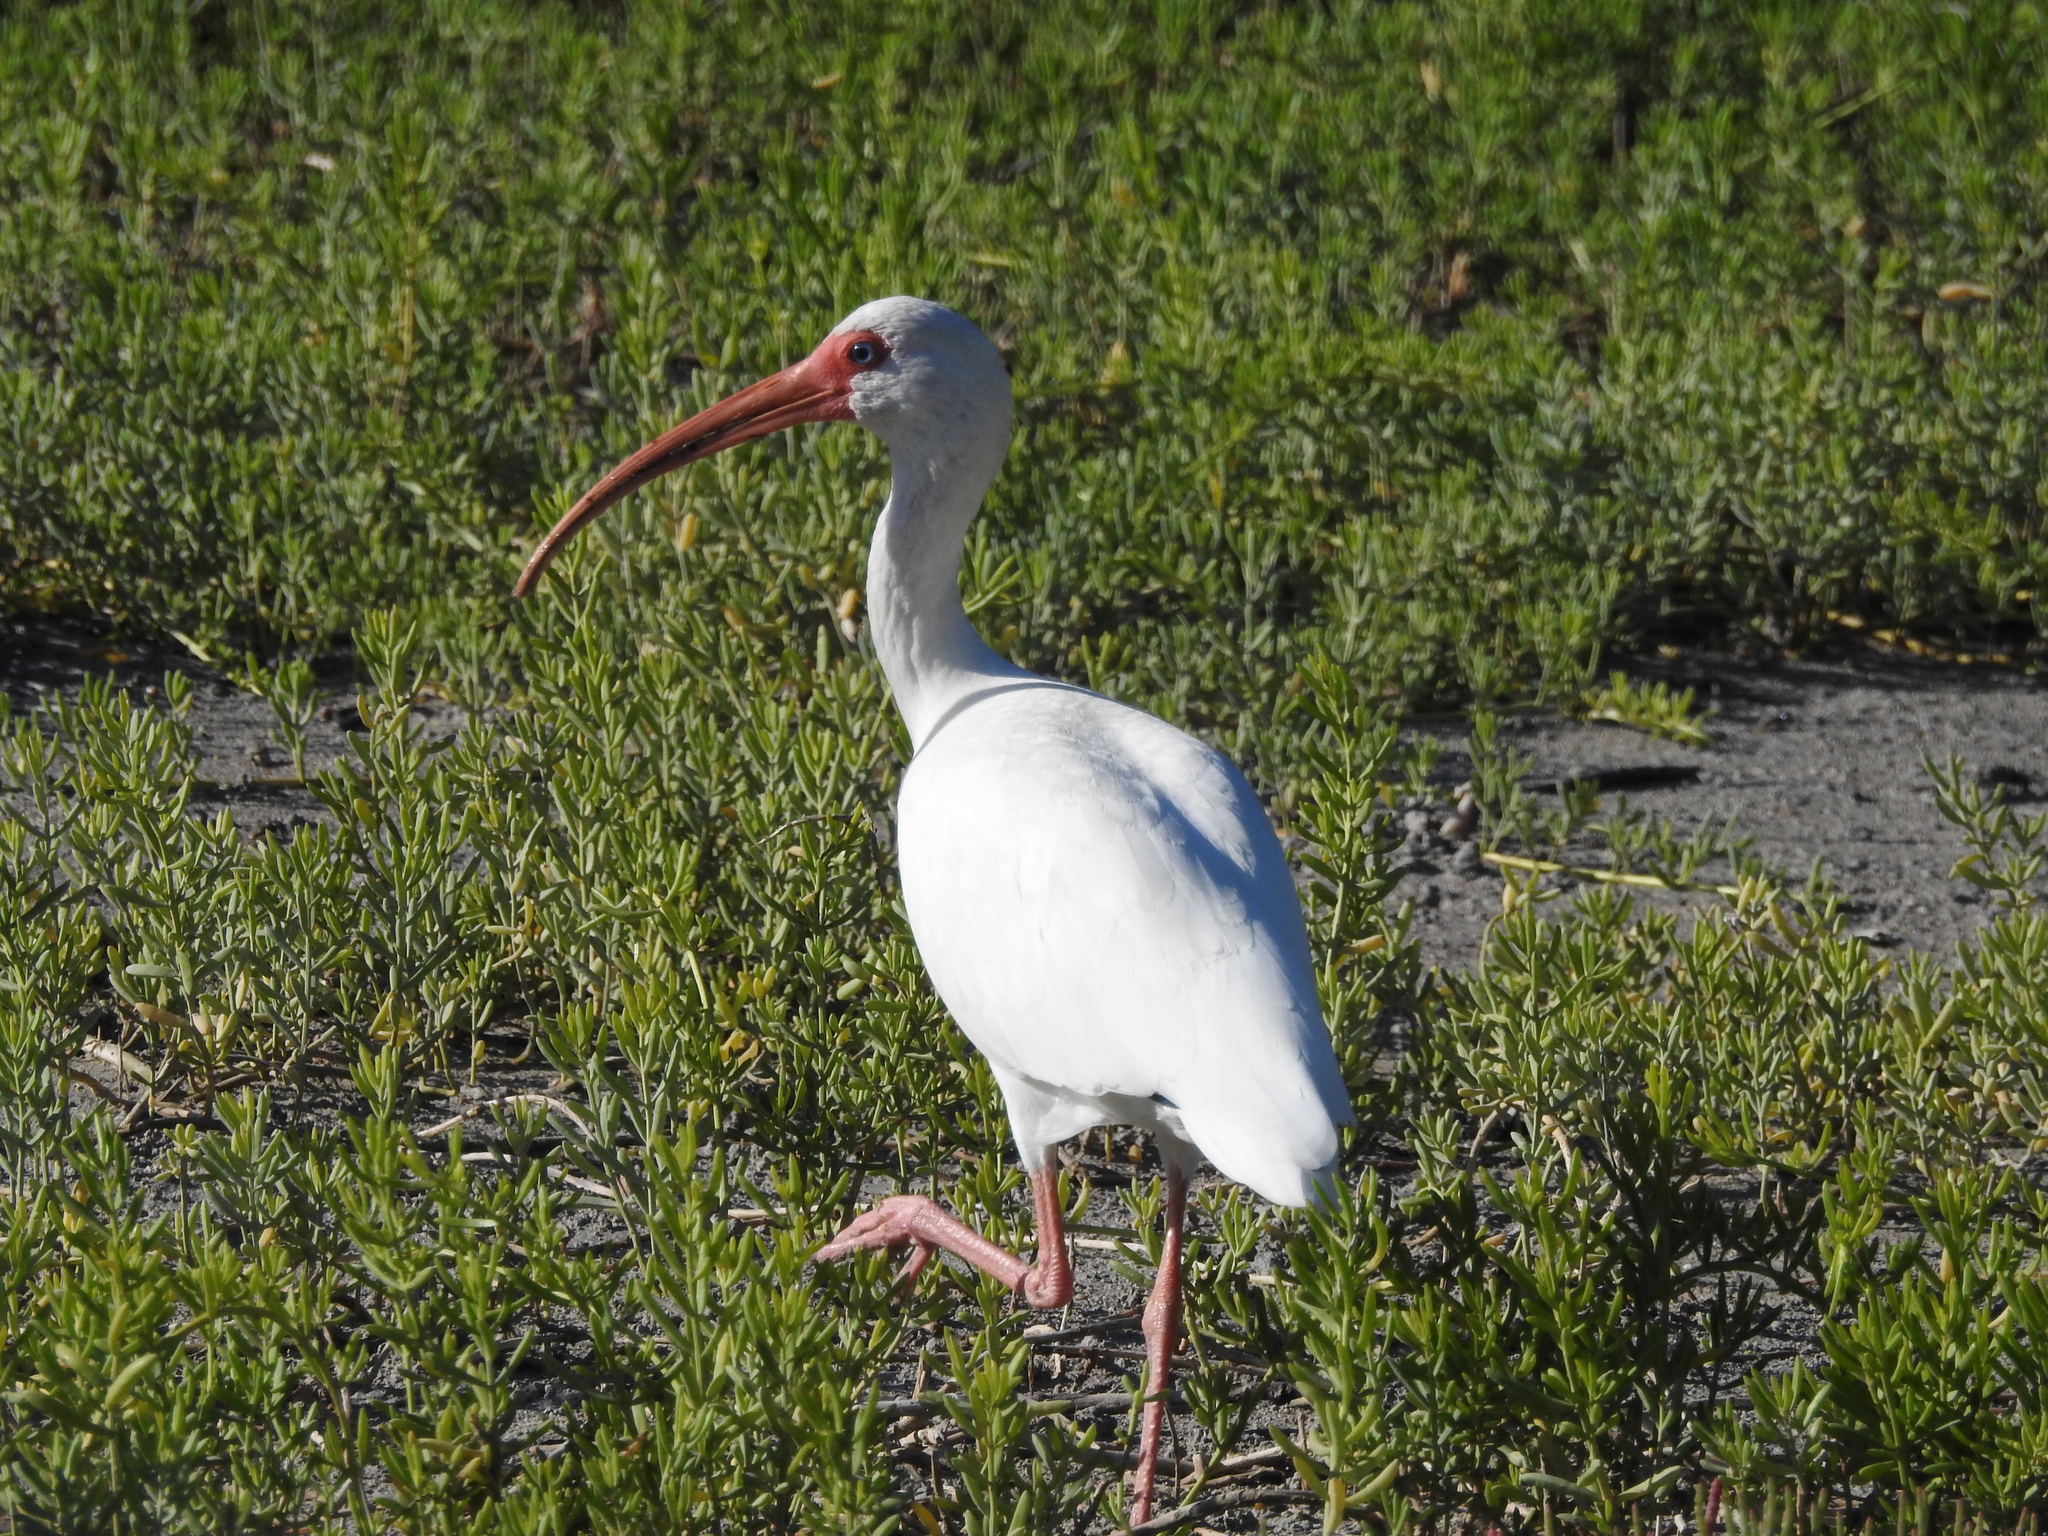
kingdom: Animalia
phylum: Chordata
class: Aves
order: Pelecaniformes
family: Threskiornithidae
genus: Eudocimus
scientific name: Eudocimus albus
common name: White ibis
